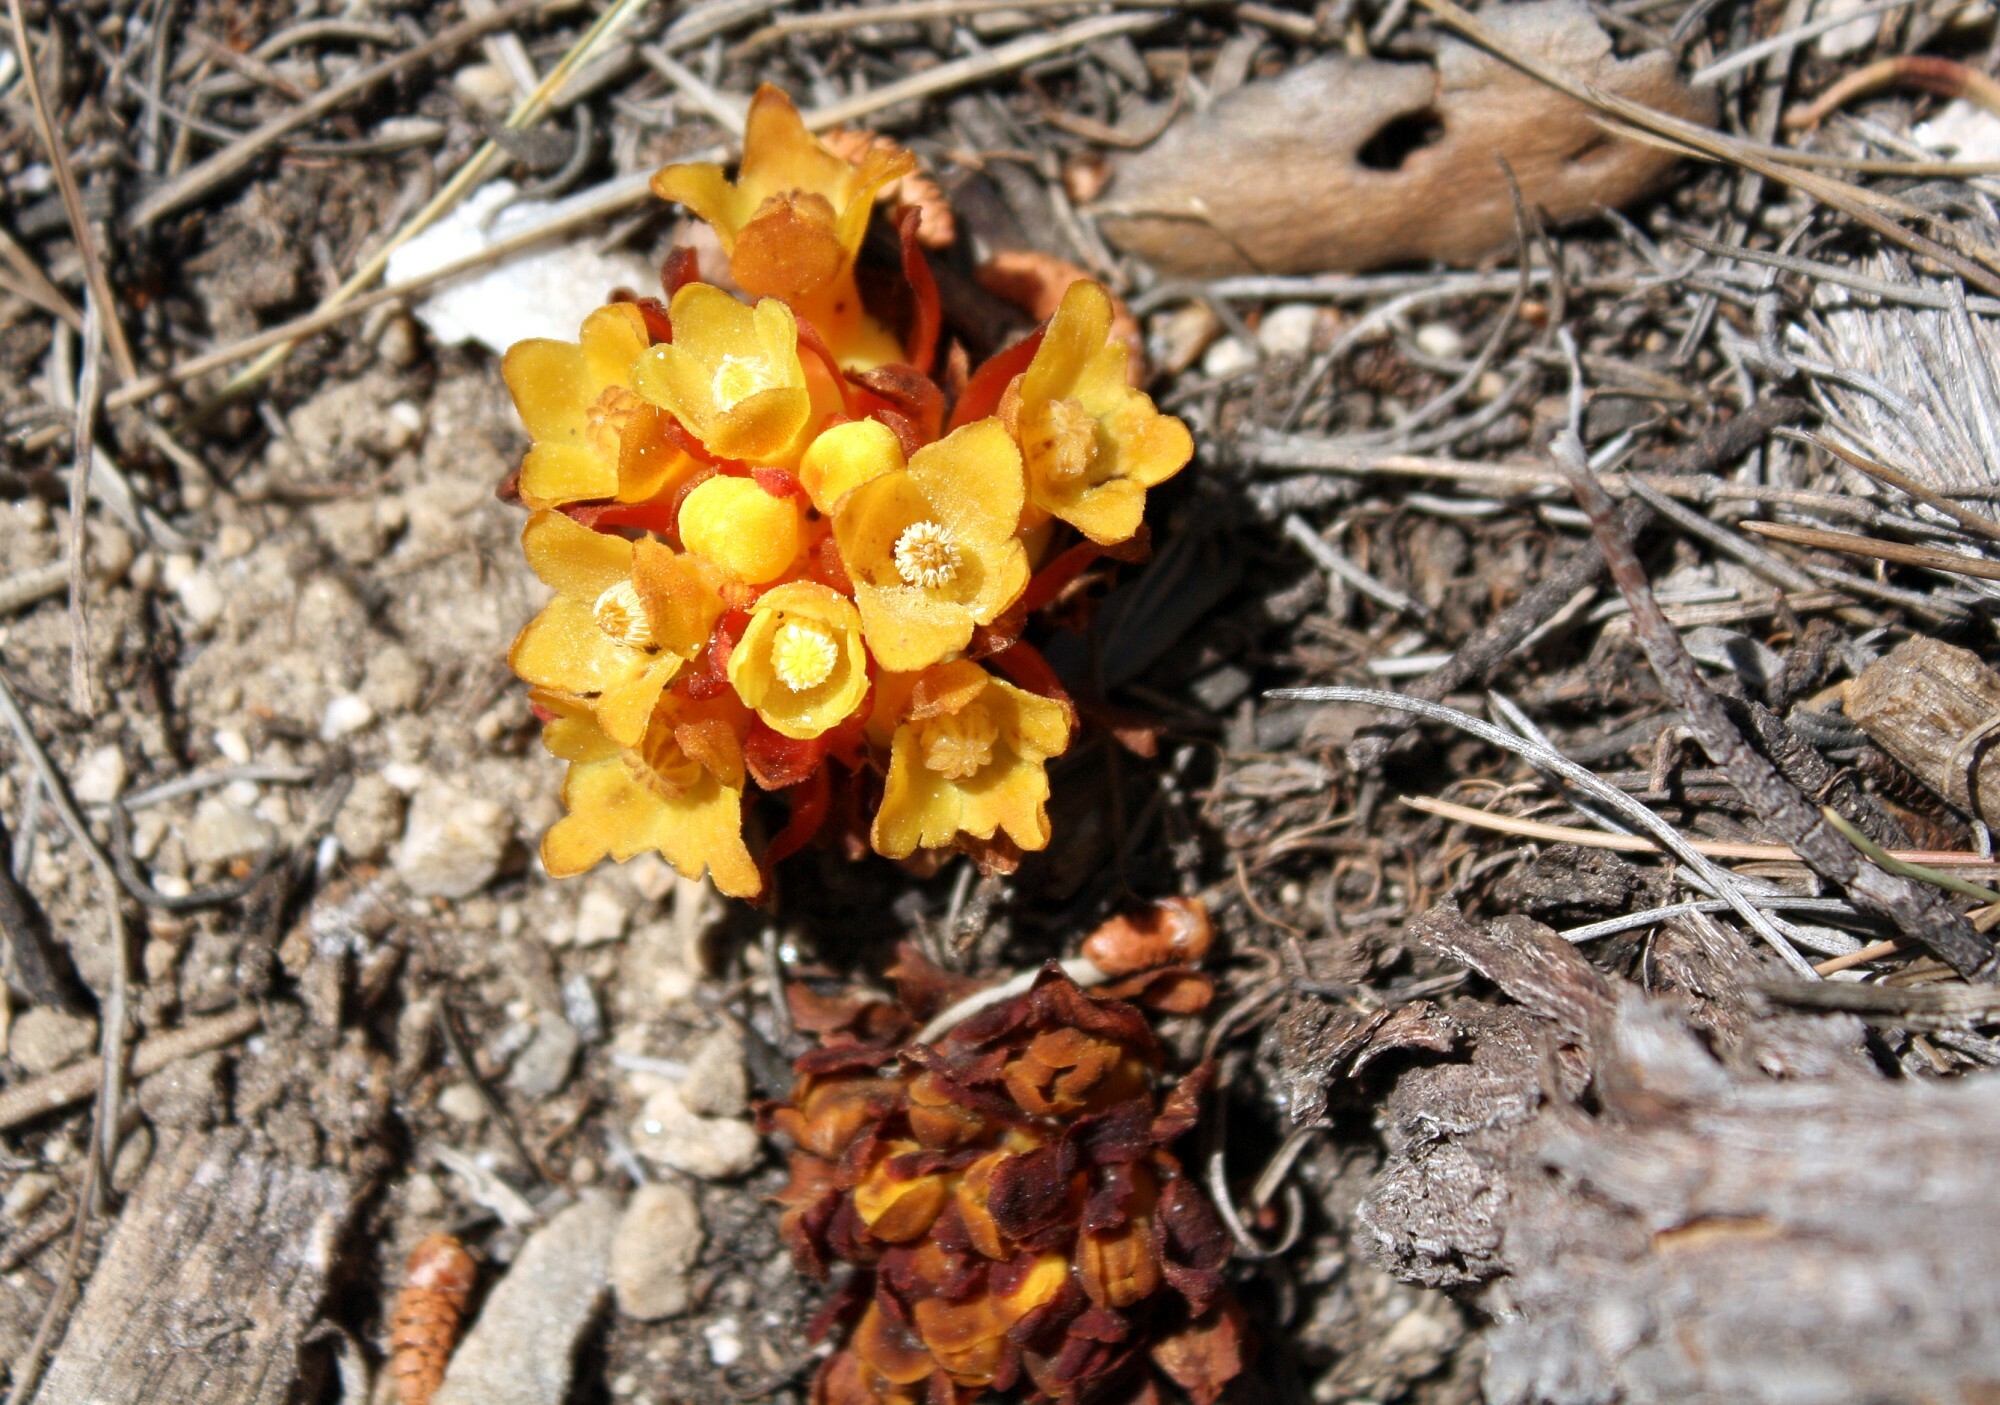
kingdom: Plantae
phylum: Tracheophyta
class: Magnoliopsida
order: Malvales
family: Cytinaceae
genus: Cytinus
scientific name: Cytinus hypocistis
